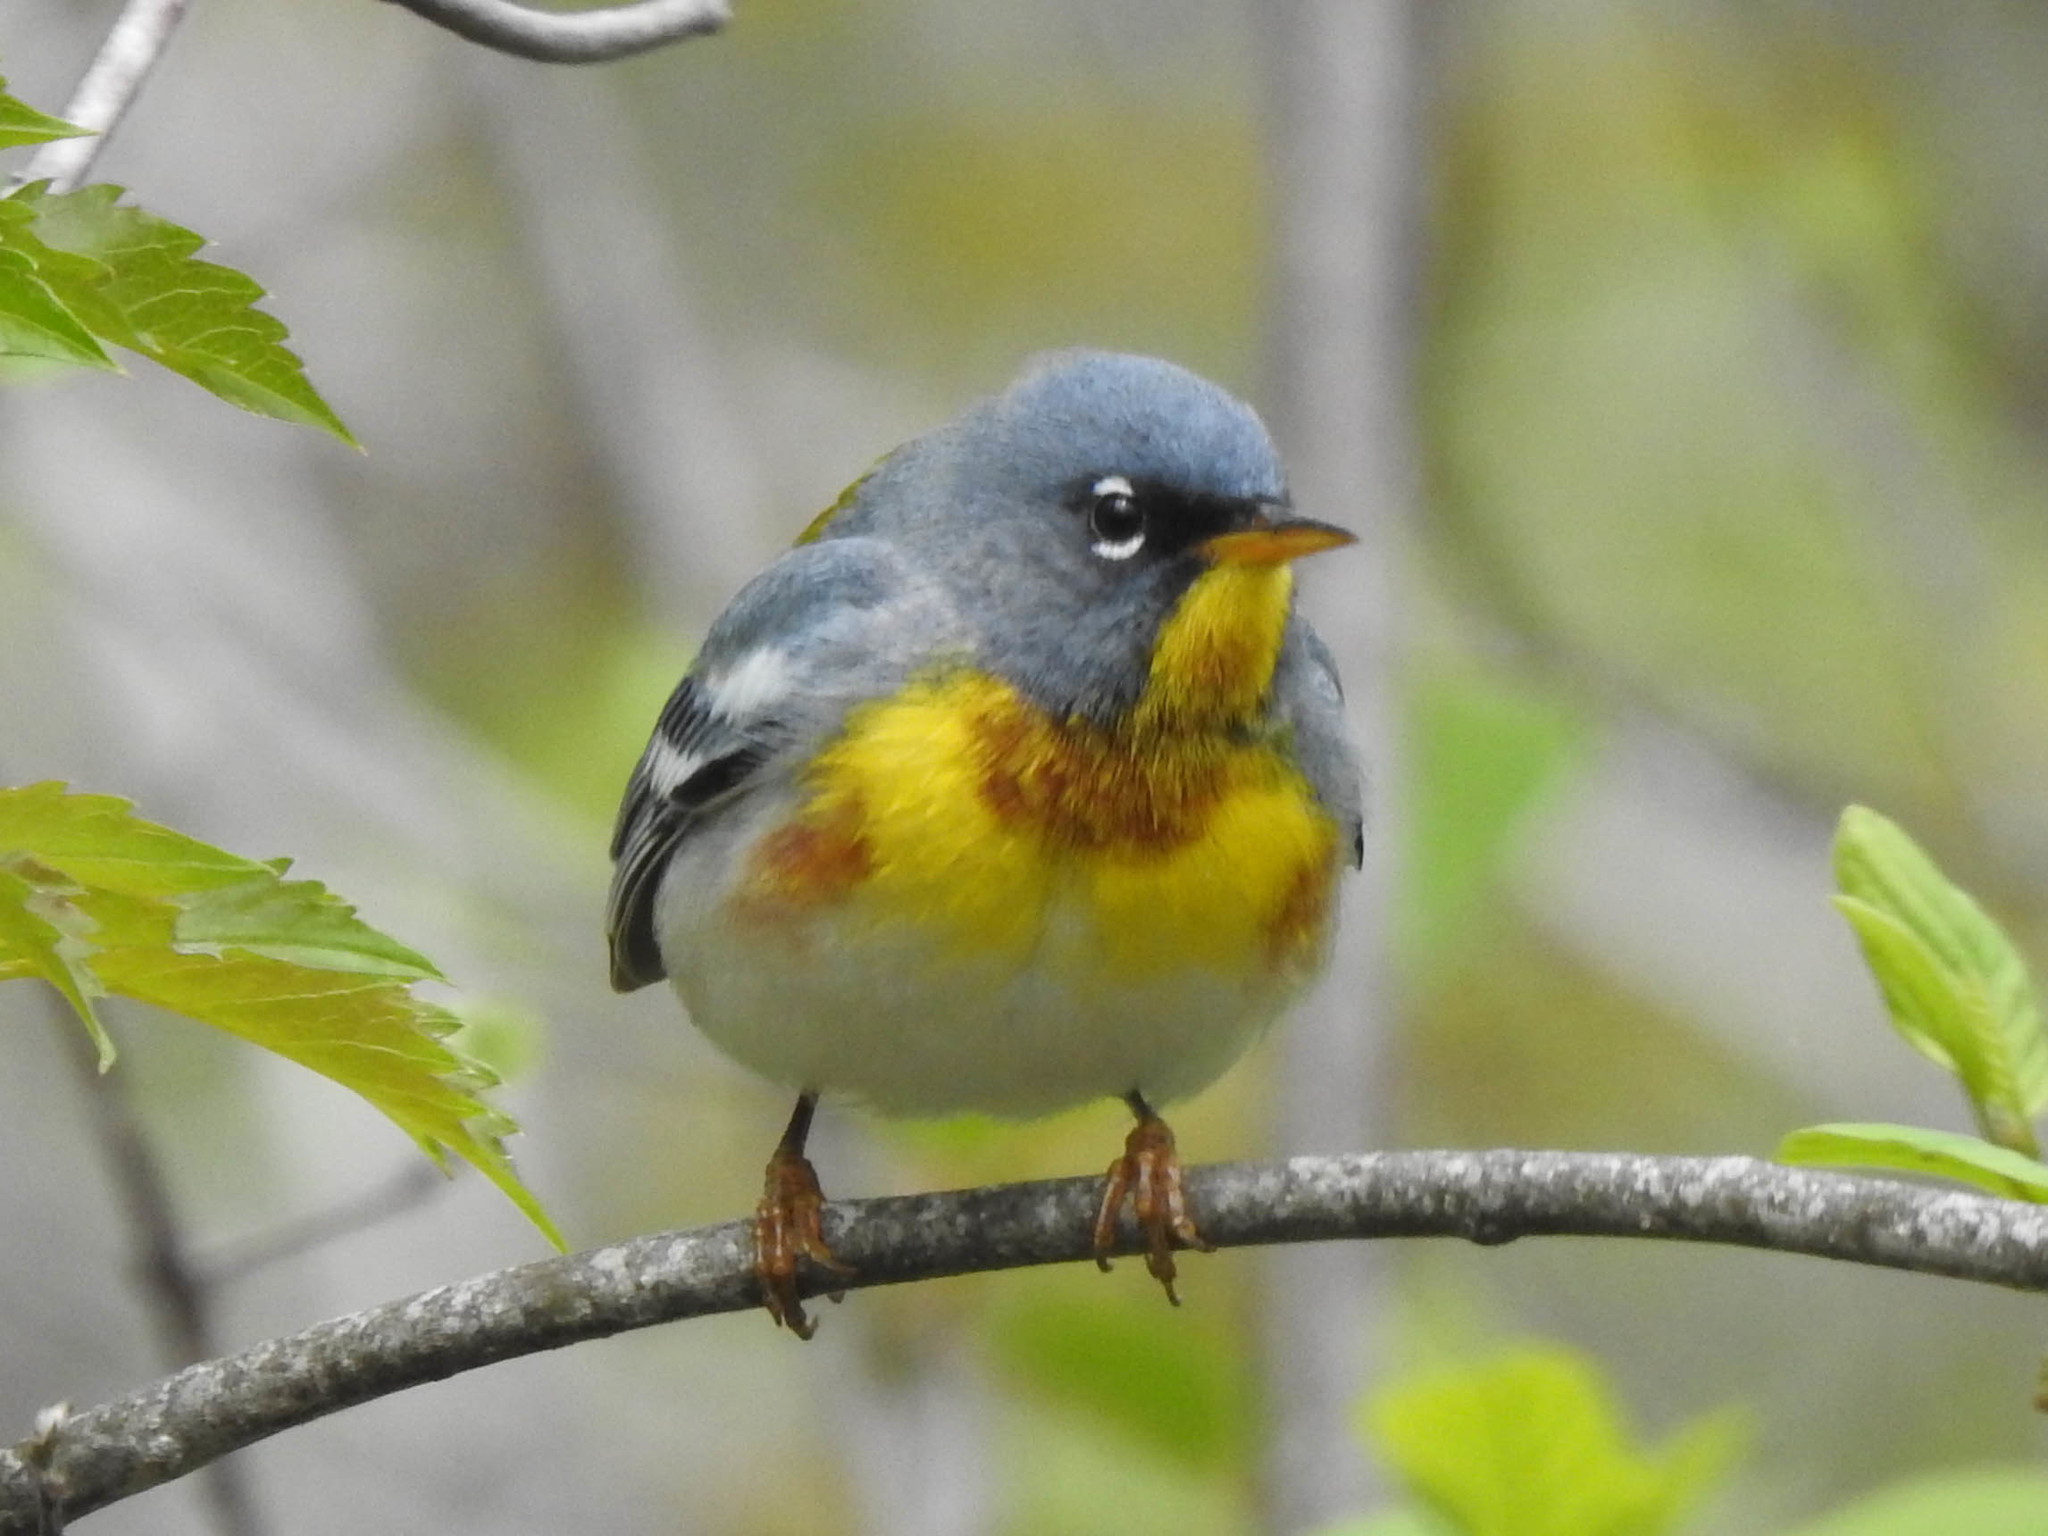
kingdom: Animalia
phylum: Chordata
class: Aves
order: Passeriformes
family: Parulidae
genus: Setophaga
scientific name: Setophaga americana
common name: Northern parula
